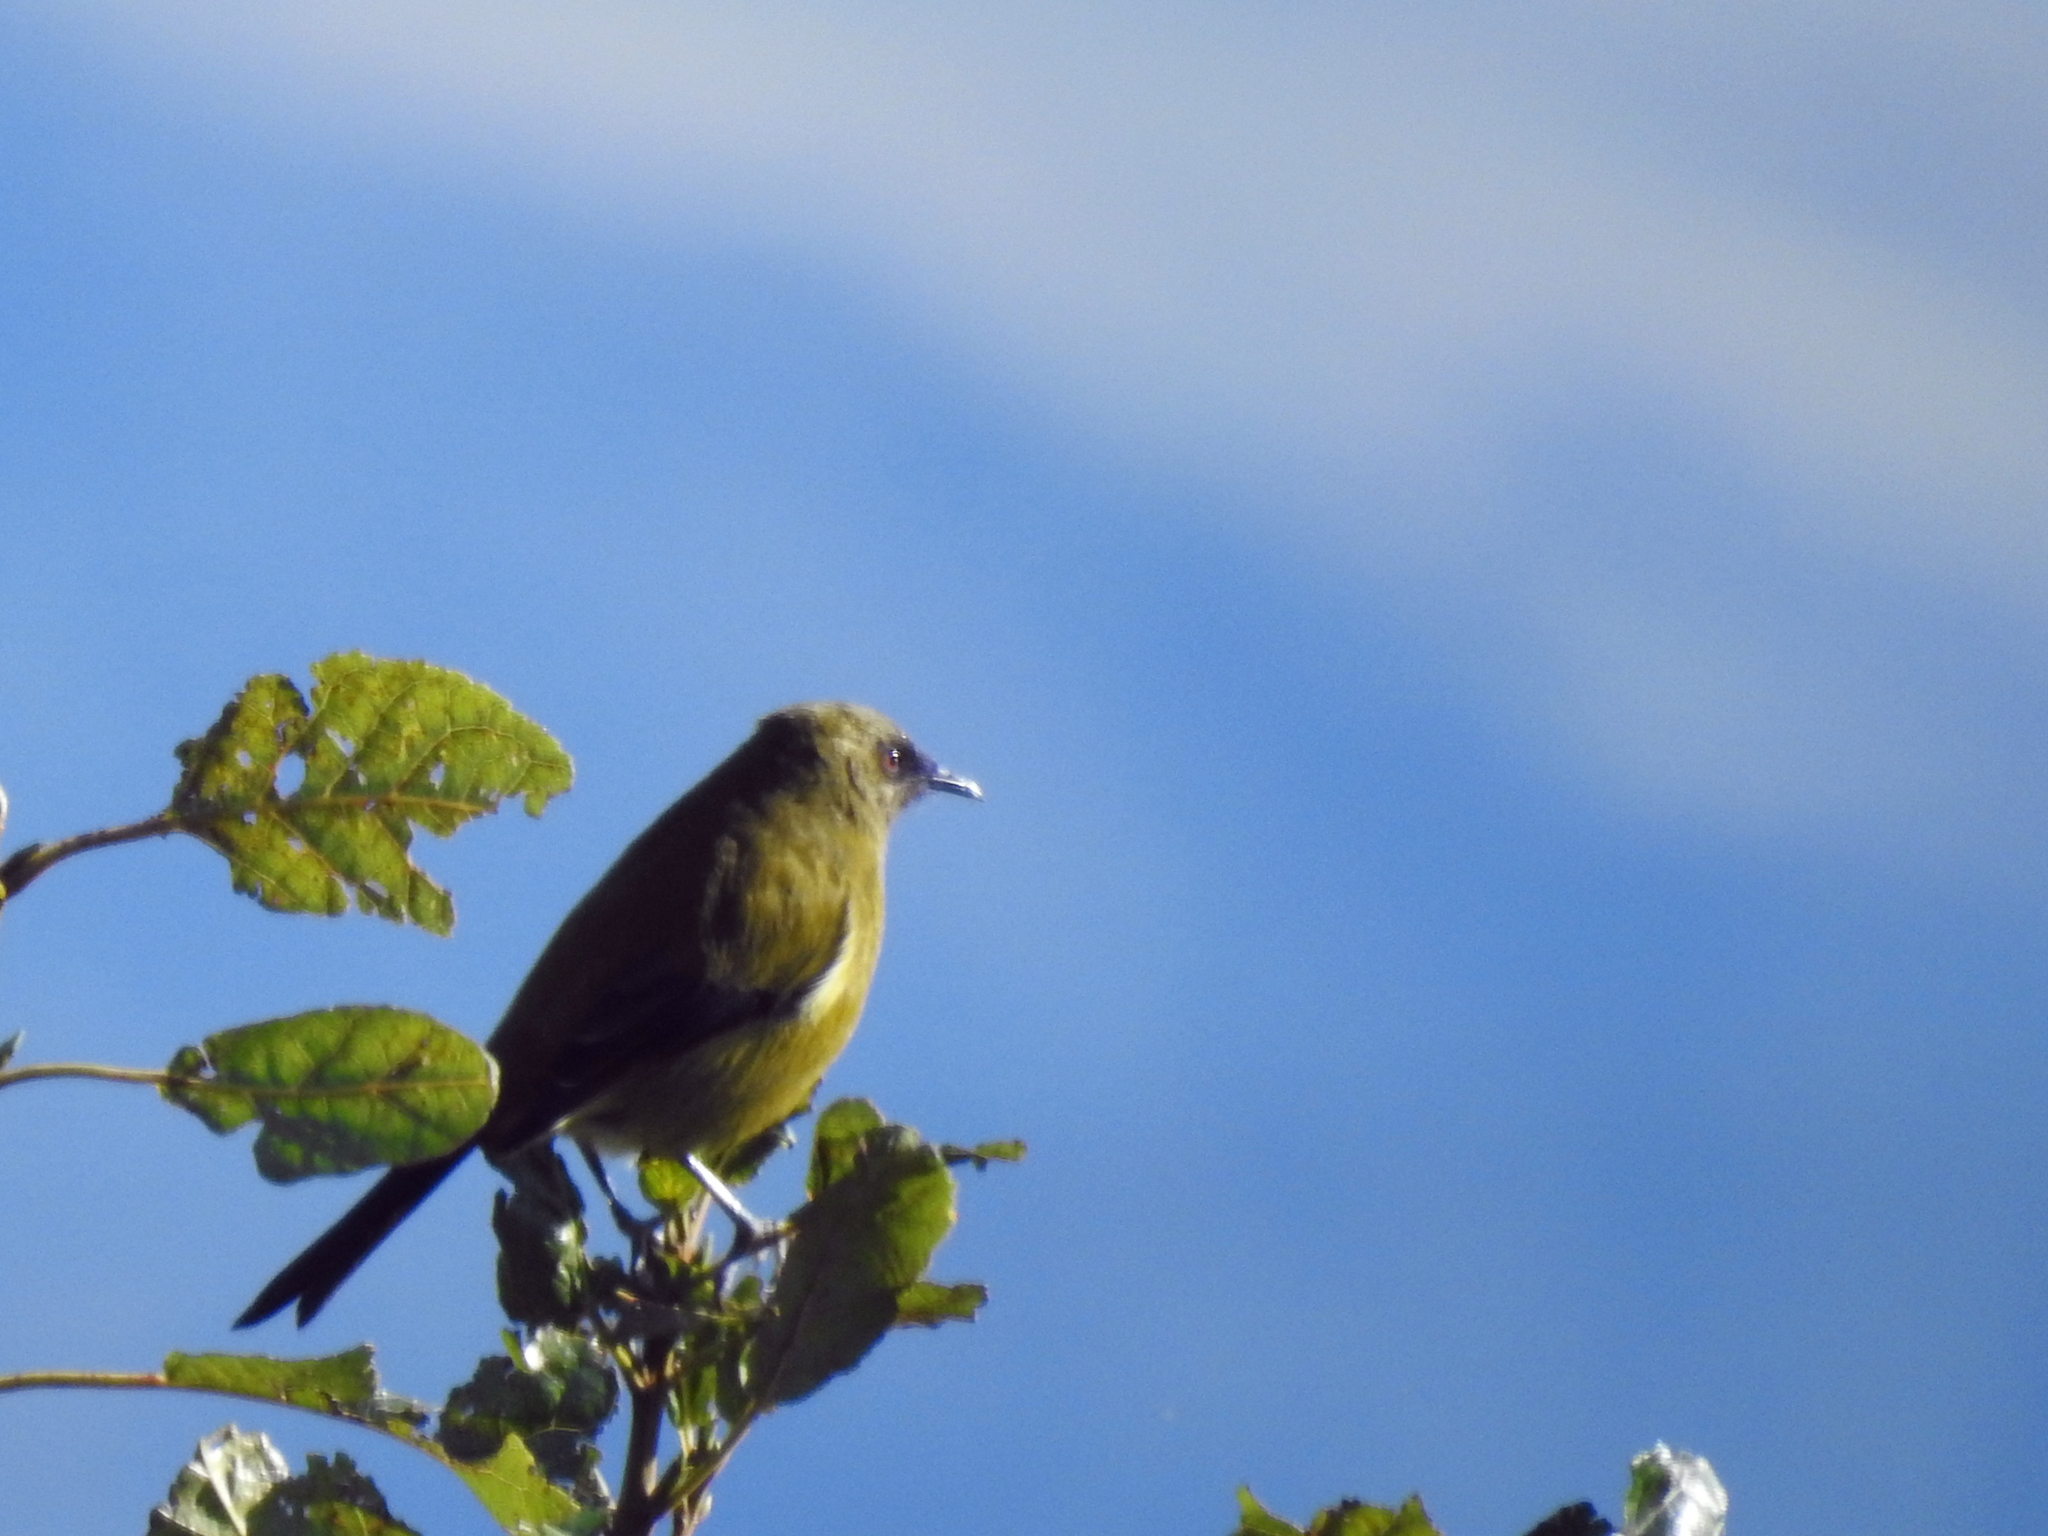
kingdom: Animalia
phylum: Chordata
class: Aves
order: Passeriformes
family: Meliphagidae
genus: Anthornis
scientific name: Anthornis melanura
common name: New zealand bellbird
